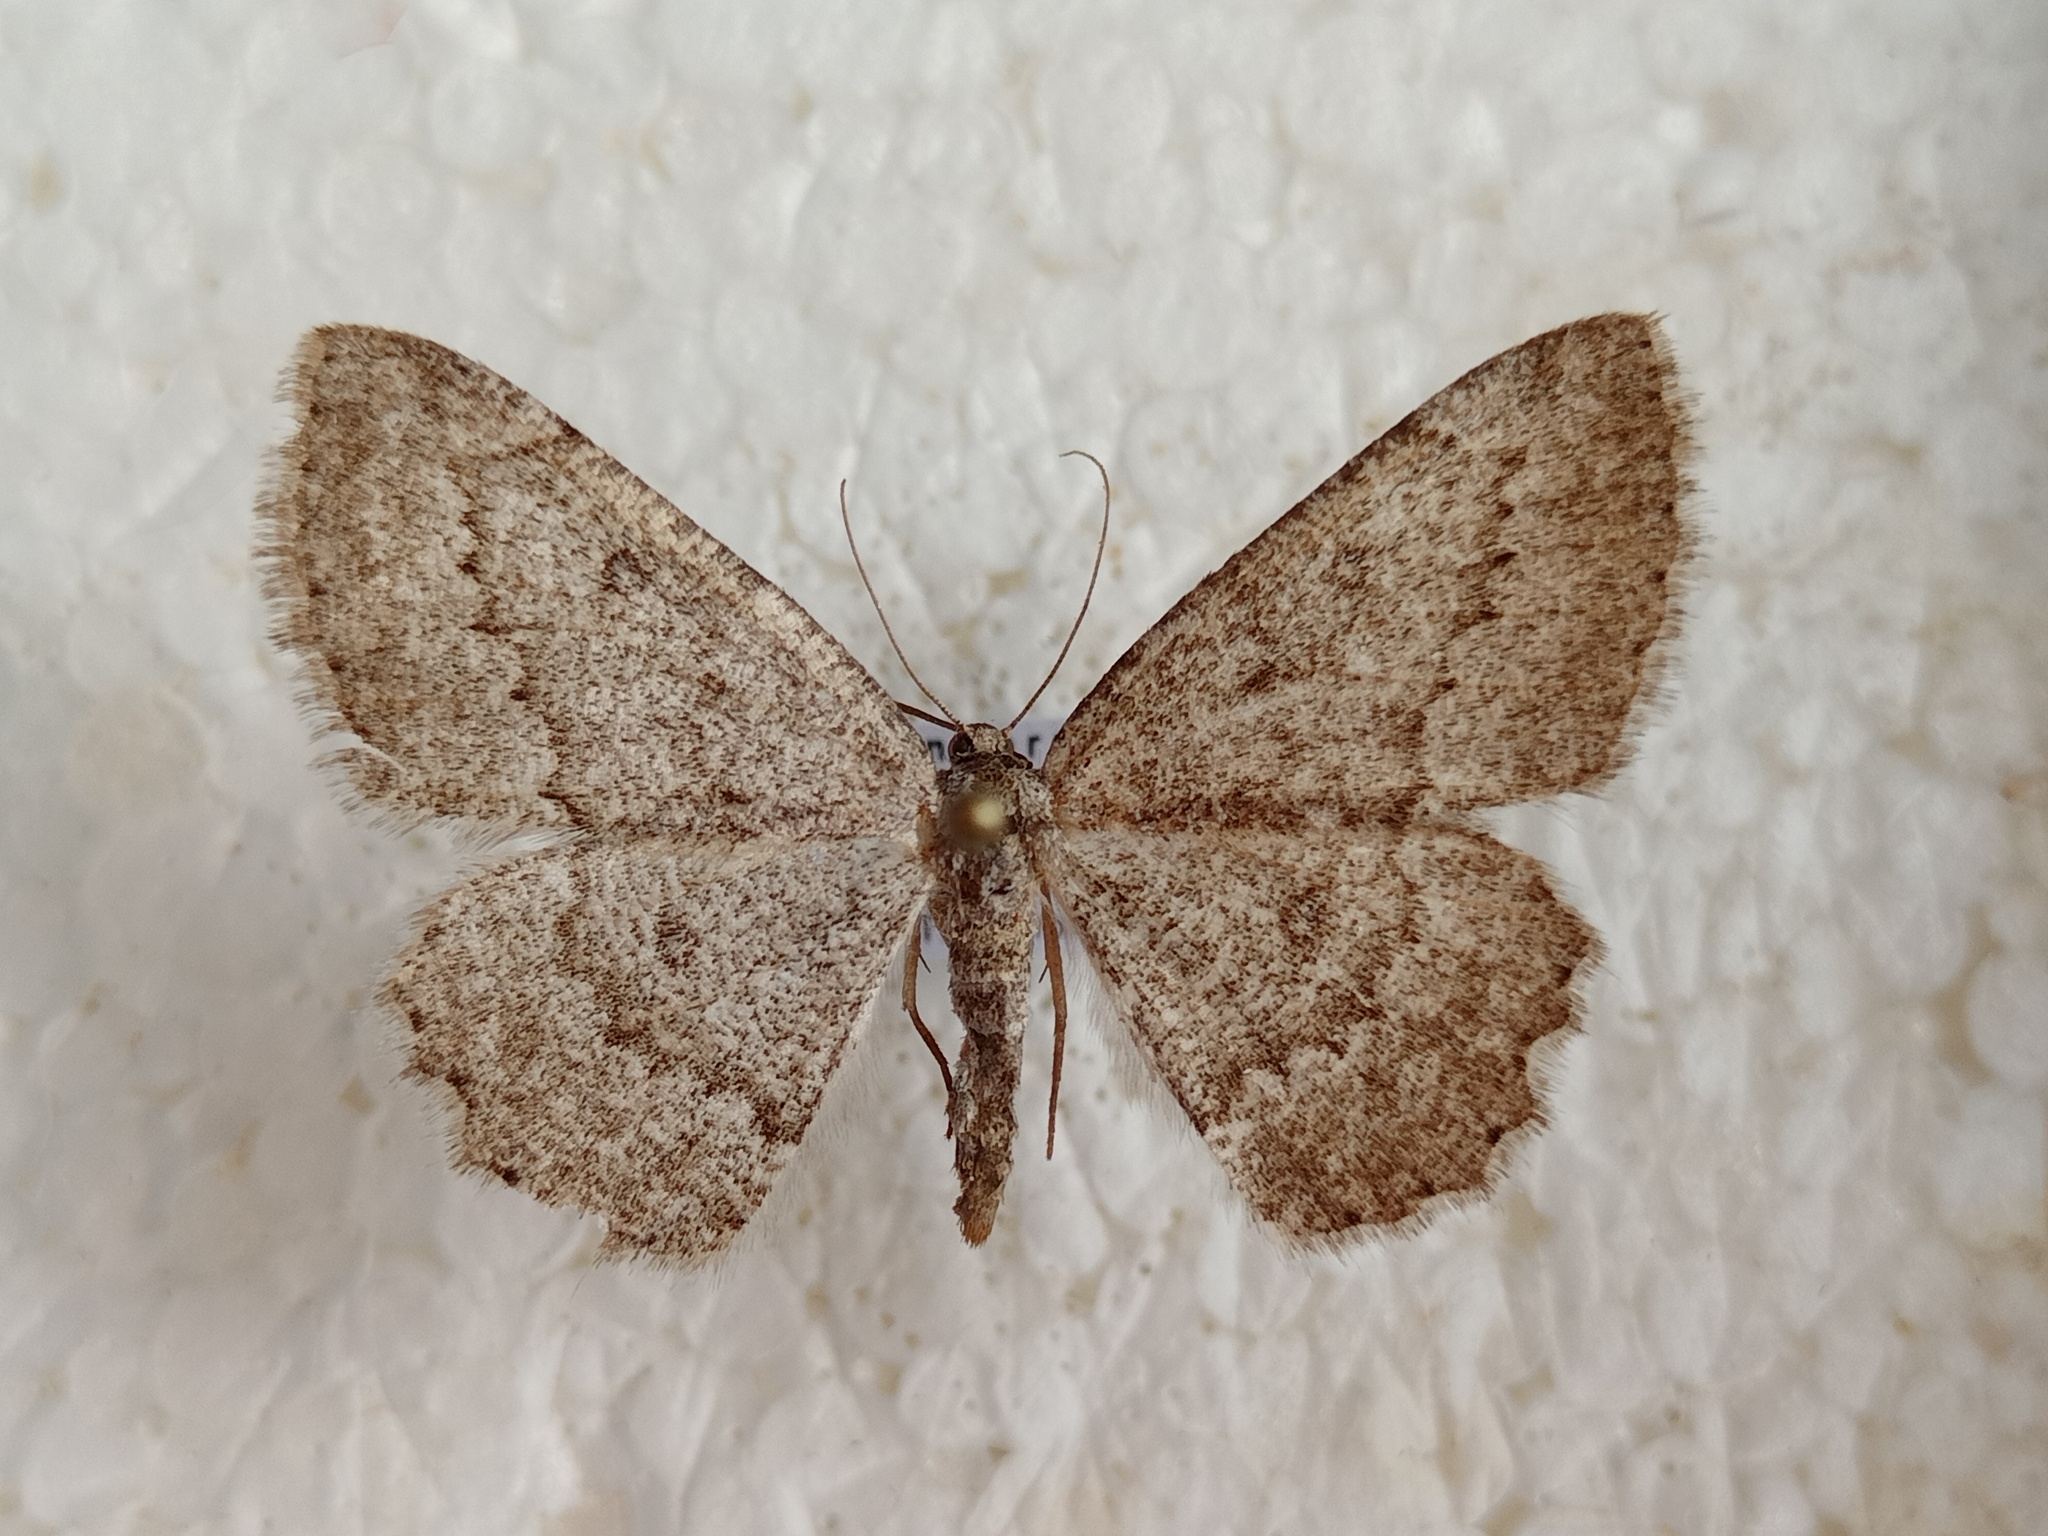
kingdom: Animalia
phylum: Arthropoda
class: Insecta
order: Lepidoptera
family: Geometridae
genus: Charissa
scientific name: Charissa ambiguata
